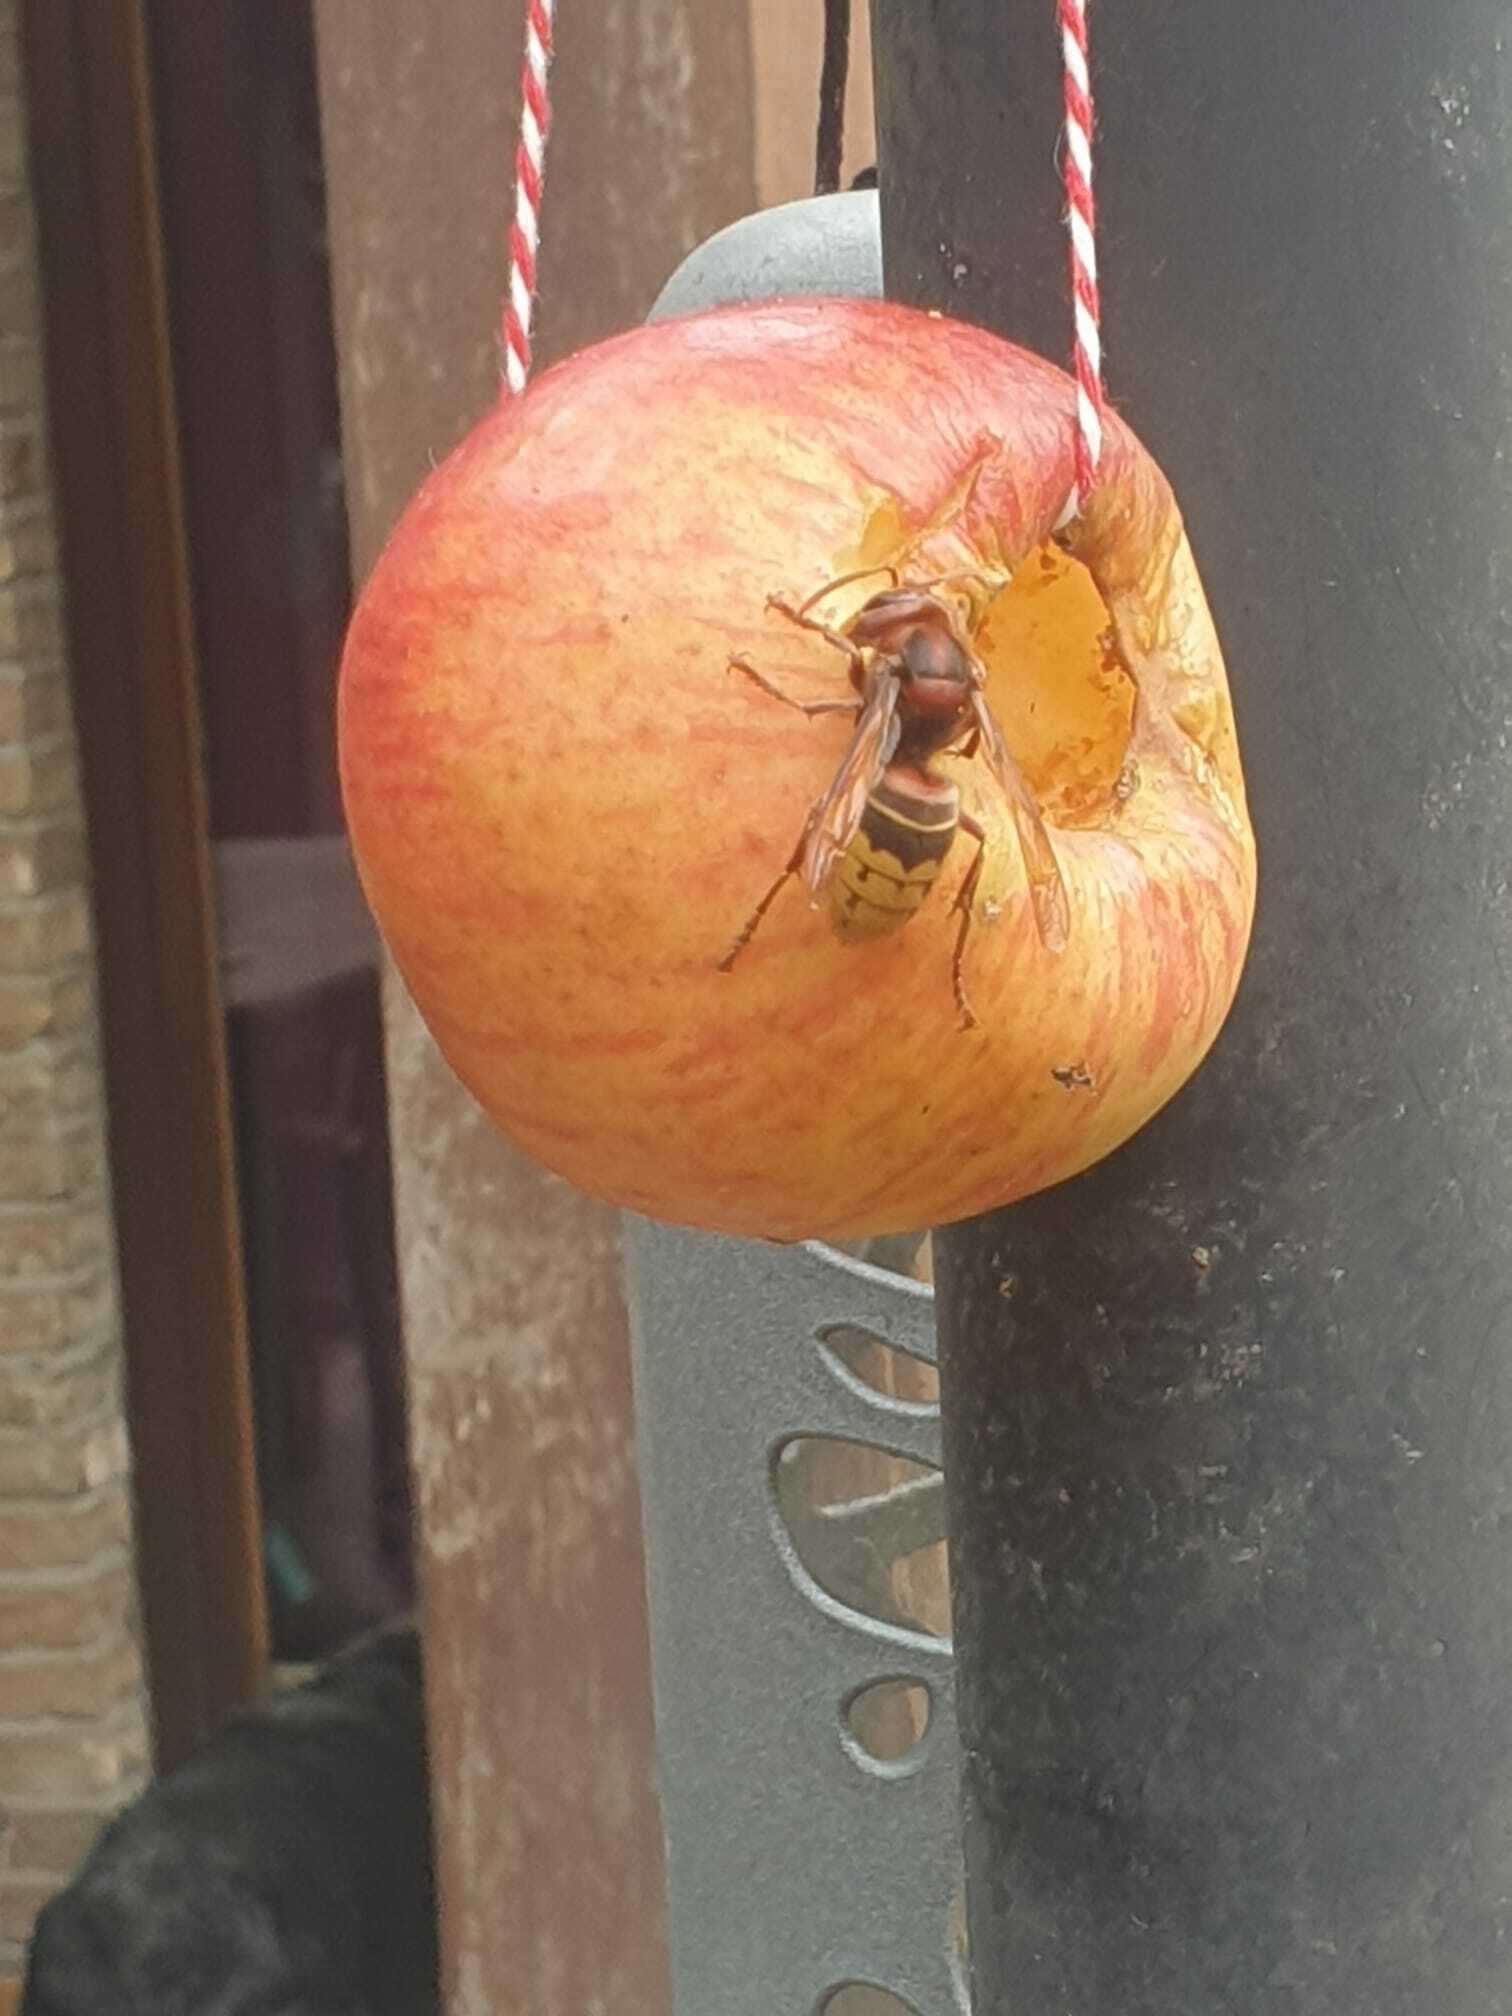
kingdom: Animalia
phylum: Arthropoda
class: Insecta
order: Hymenoptera
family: Vespidae
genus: Vespa
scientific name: Vespa crabro
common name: Hornet
